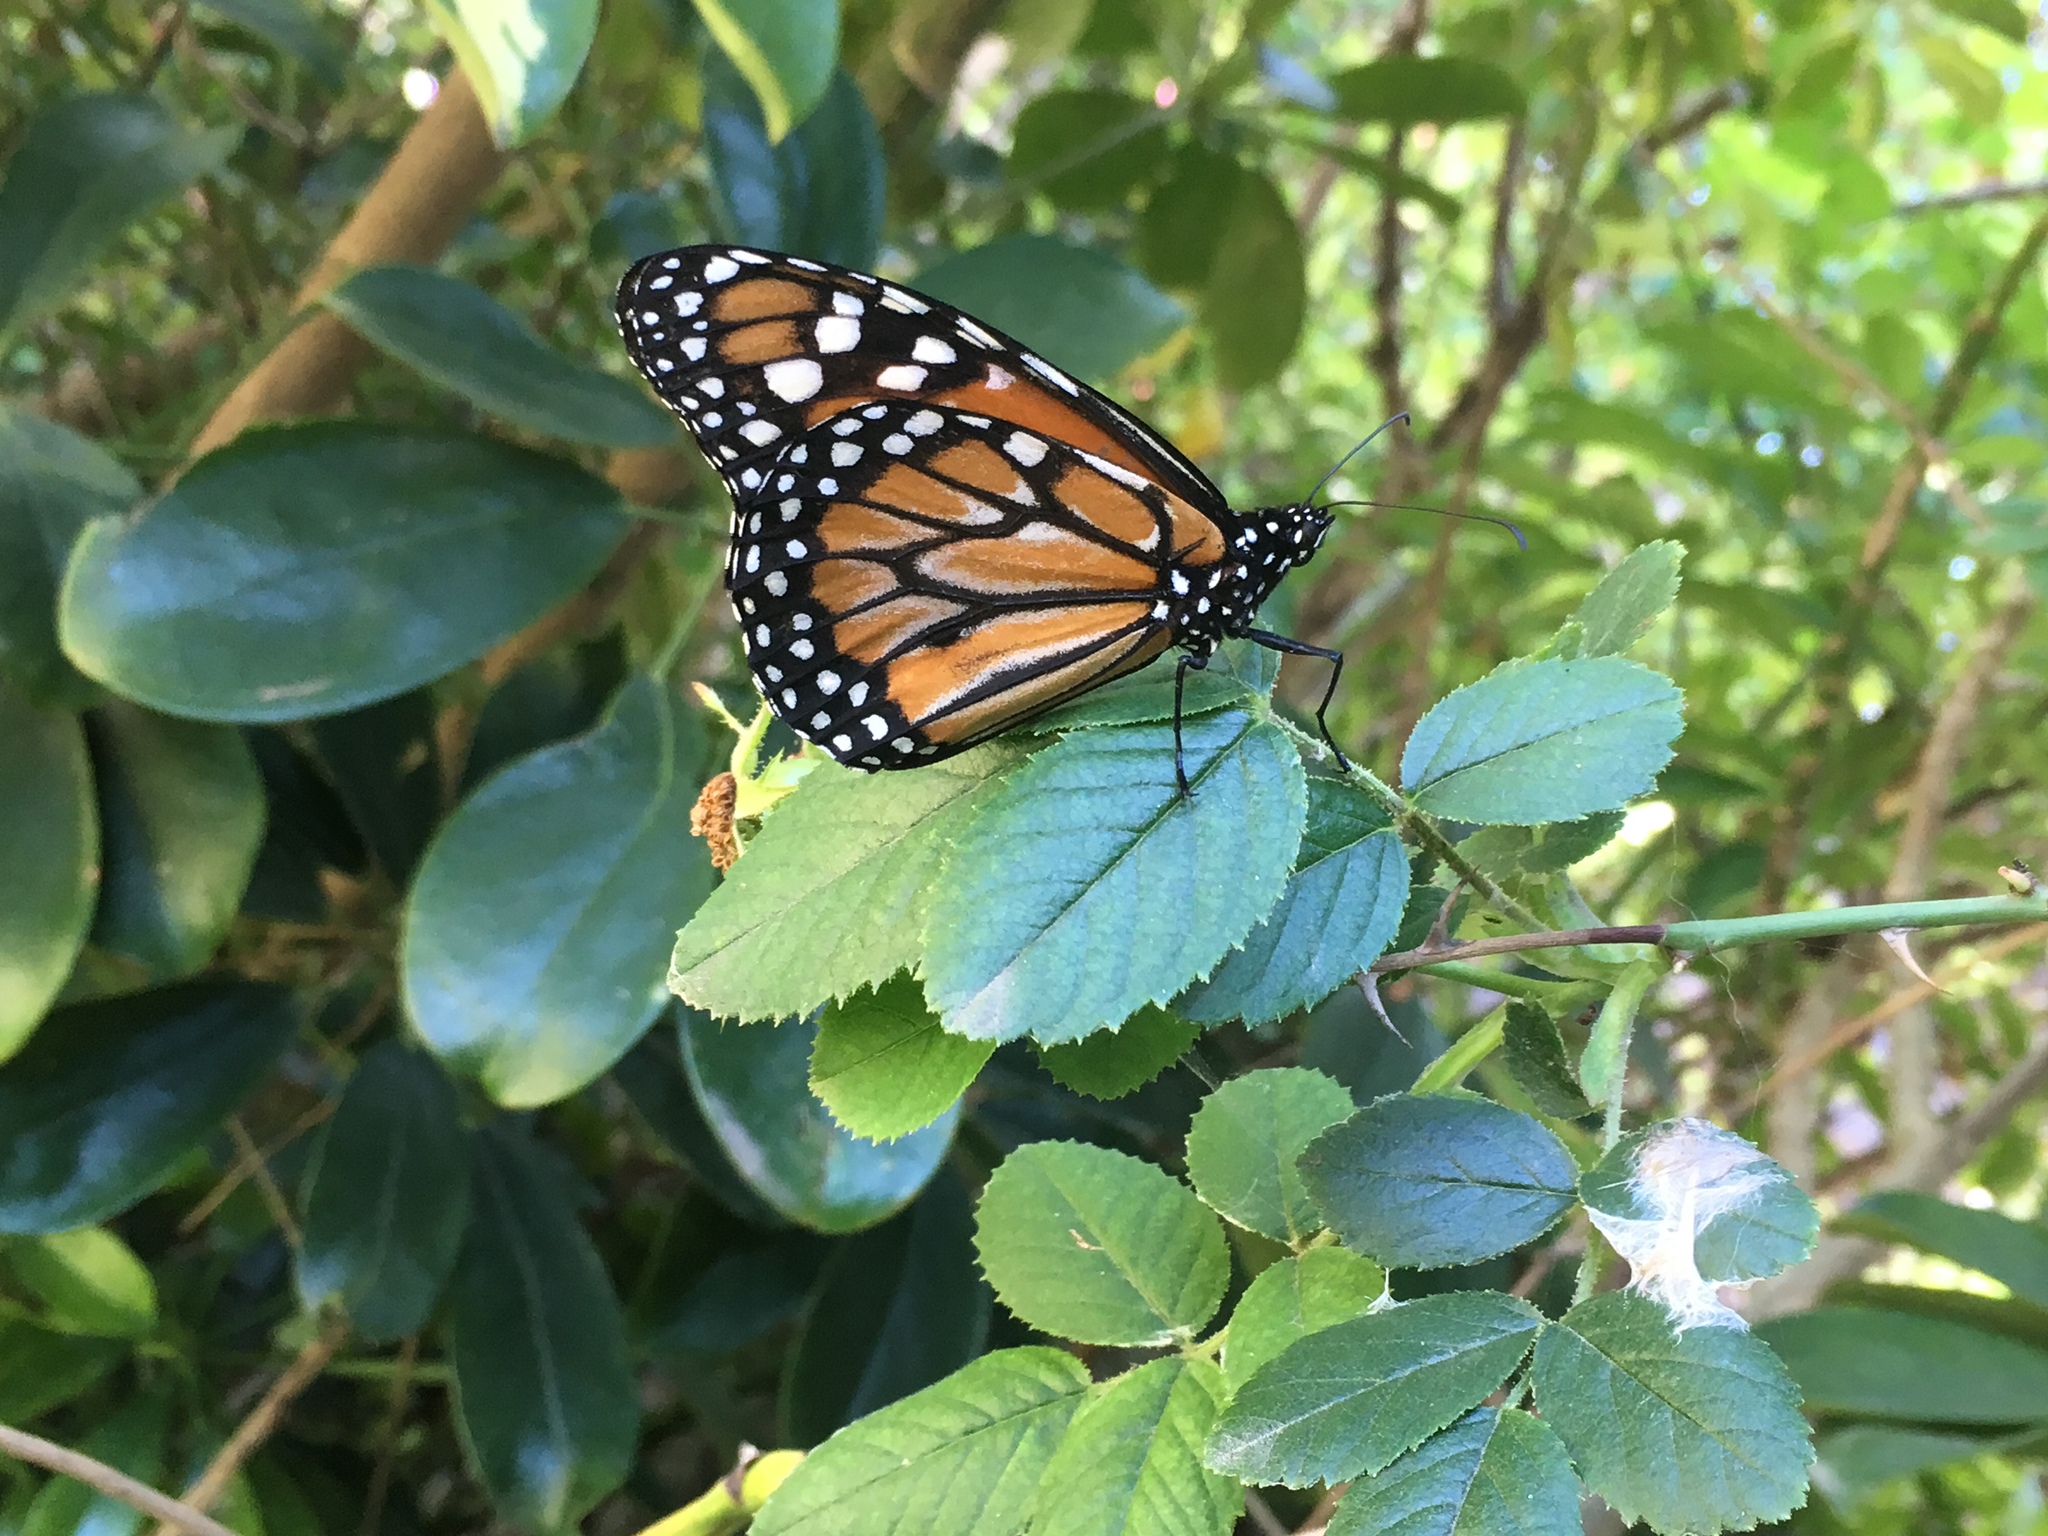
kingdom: Animalia
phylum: Arthropoda
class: Insecta
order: Lepidoptera
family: Nymphalidae
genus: Danaus
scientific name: Danaus erippus
